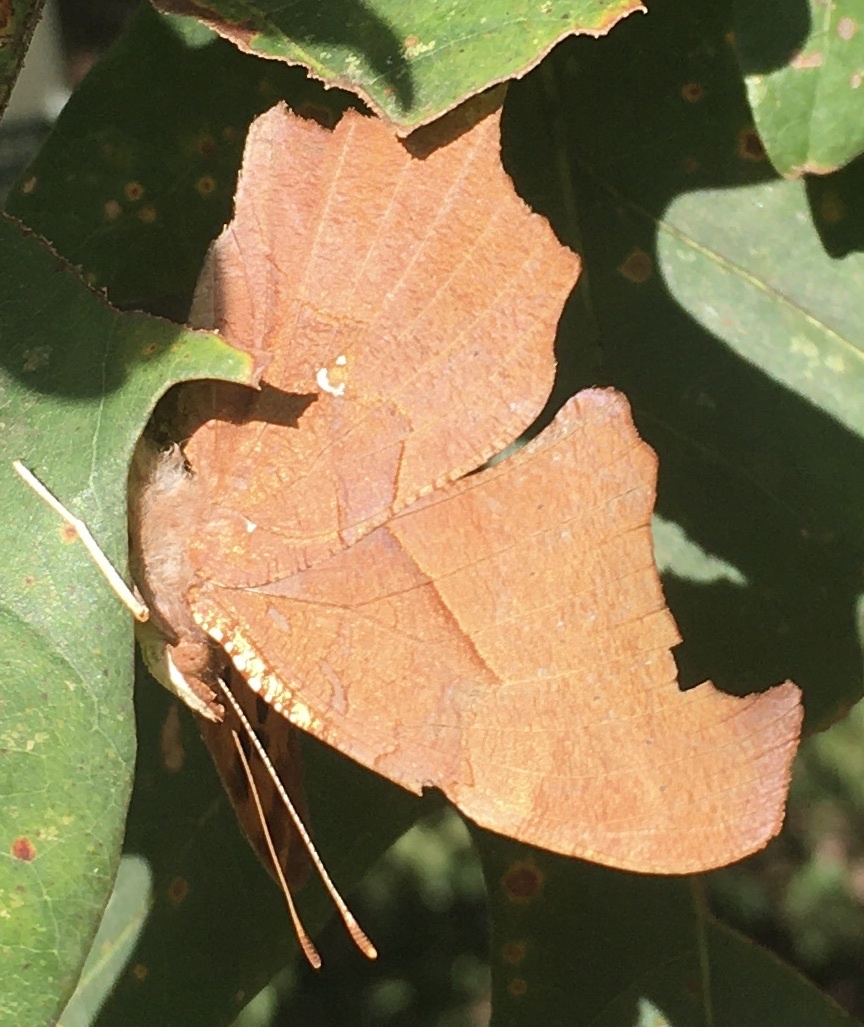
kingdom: Animalia
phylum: Arthropoda
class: Insecta
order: Lepidoptera
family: Nymphalidae
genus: Polygonia
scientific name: Polygonia interrogationis
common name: Question mark
